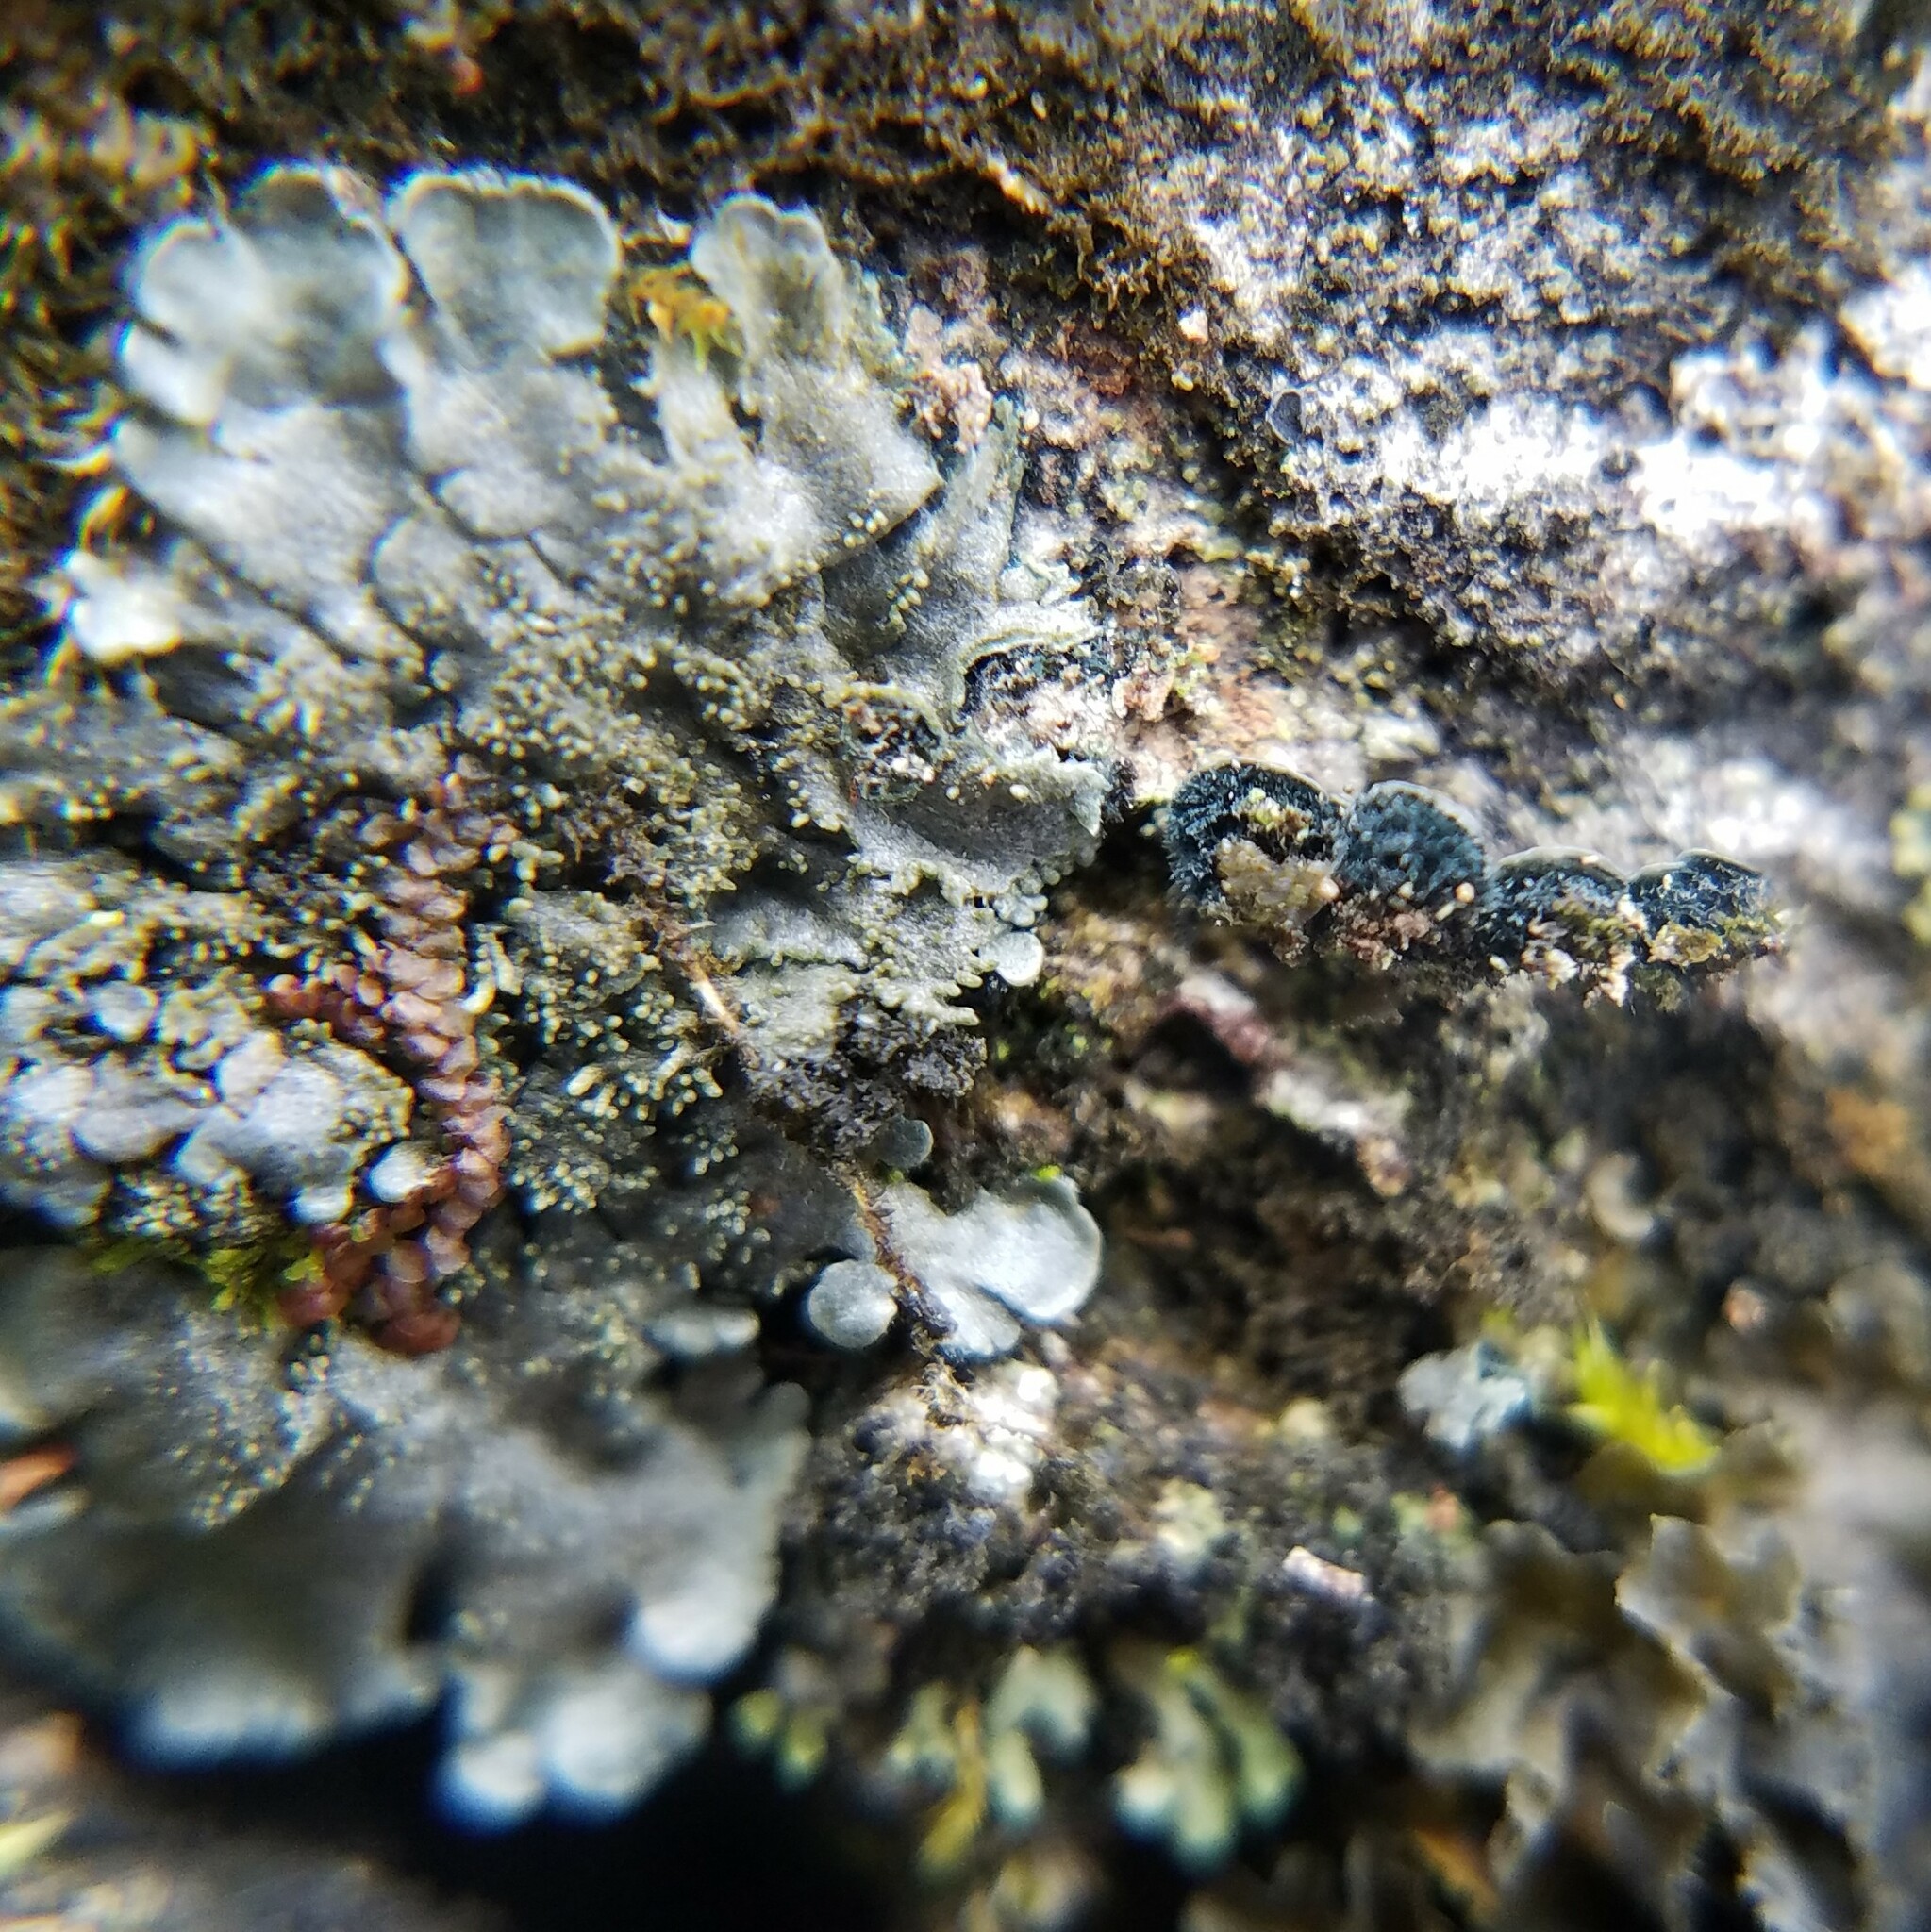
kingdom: Fungi
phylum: Ascomycota
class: Lecanoromycetes
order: Peltigerales
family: Coccocarpiaceae
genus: Coccocarpia
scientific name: Coccocarpia palmicola
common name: Salted shell lichen
